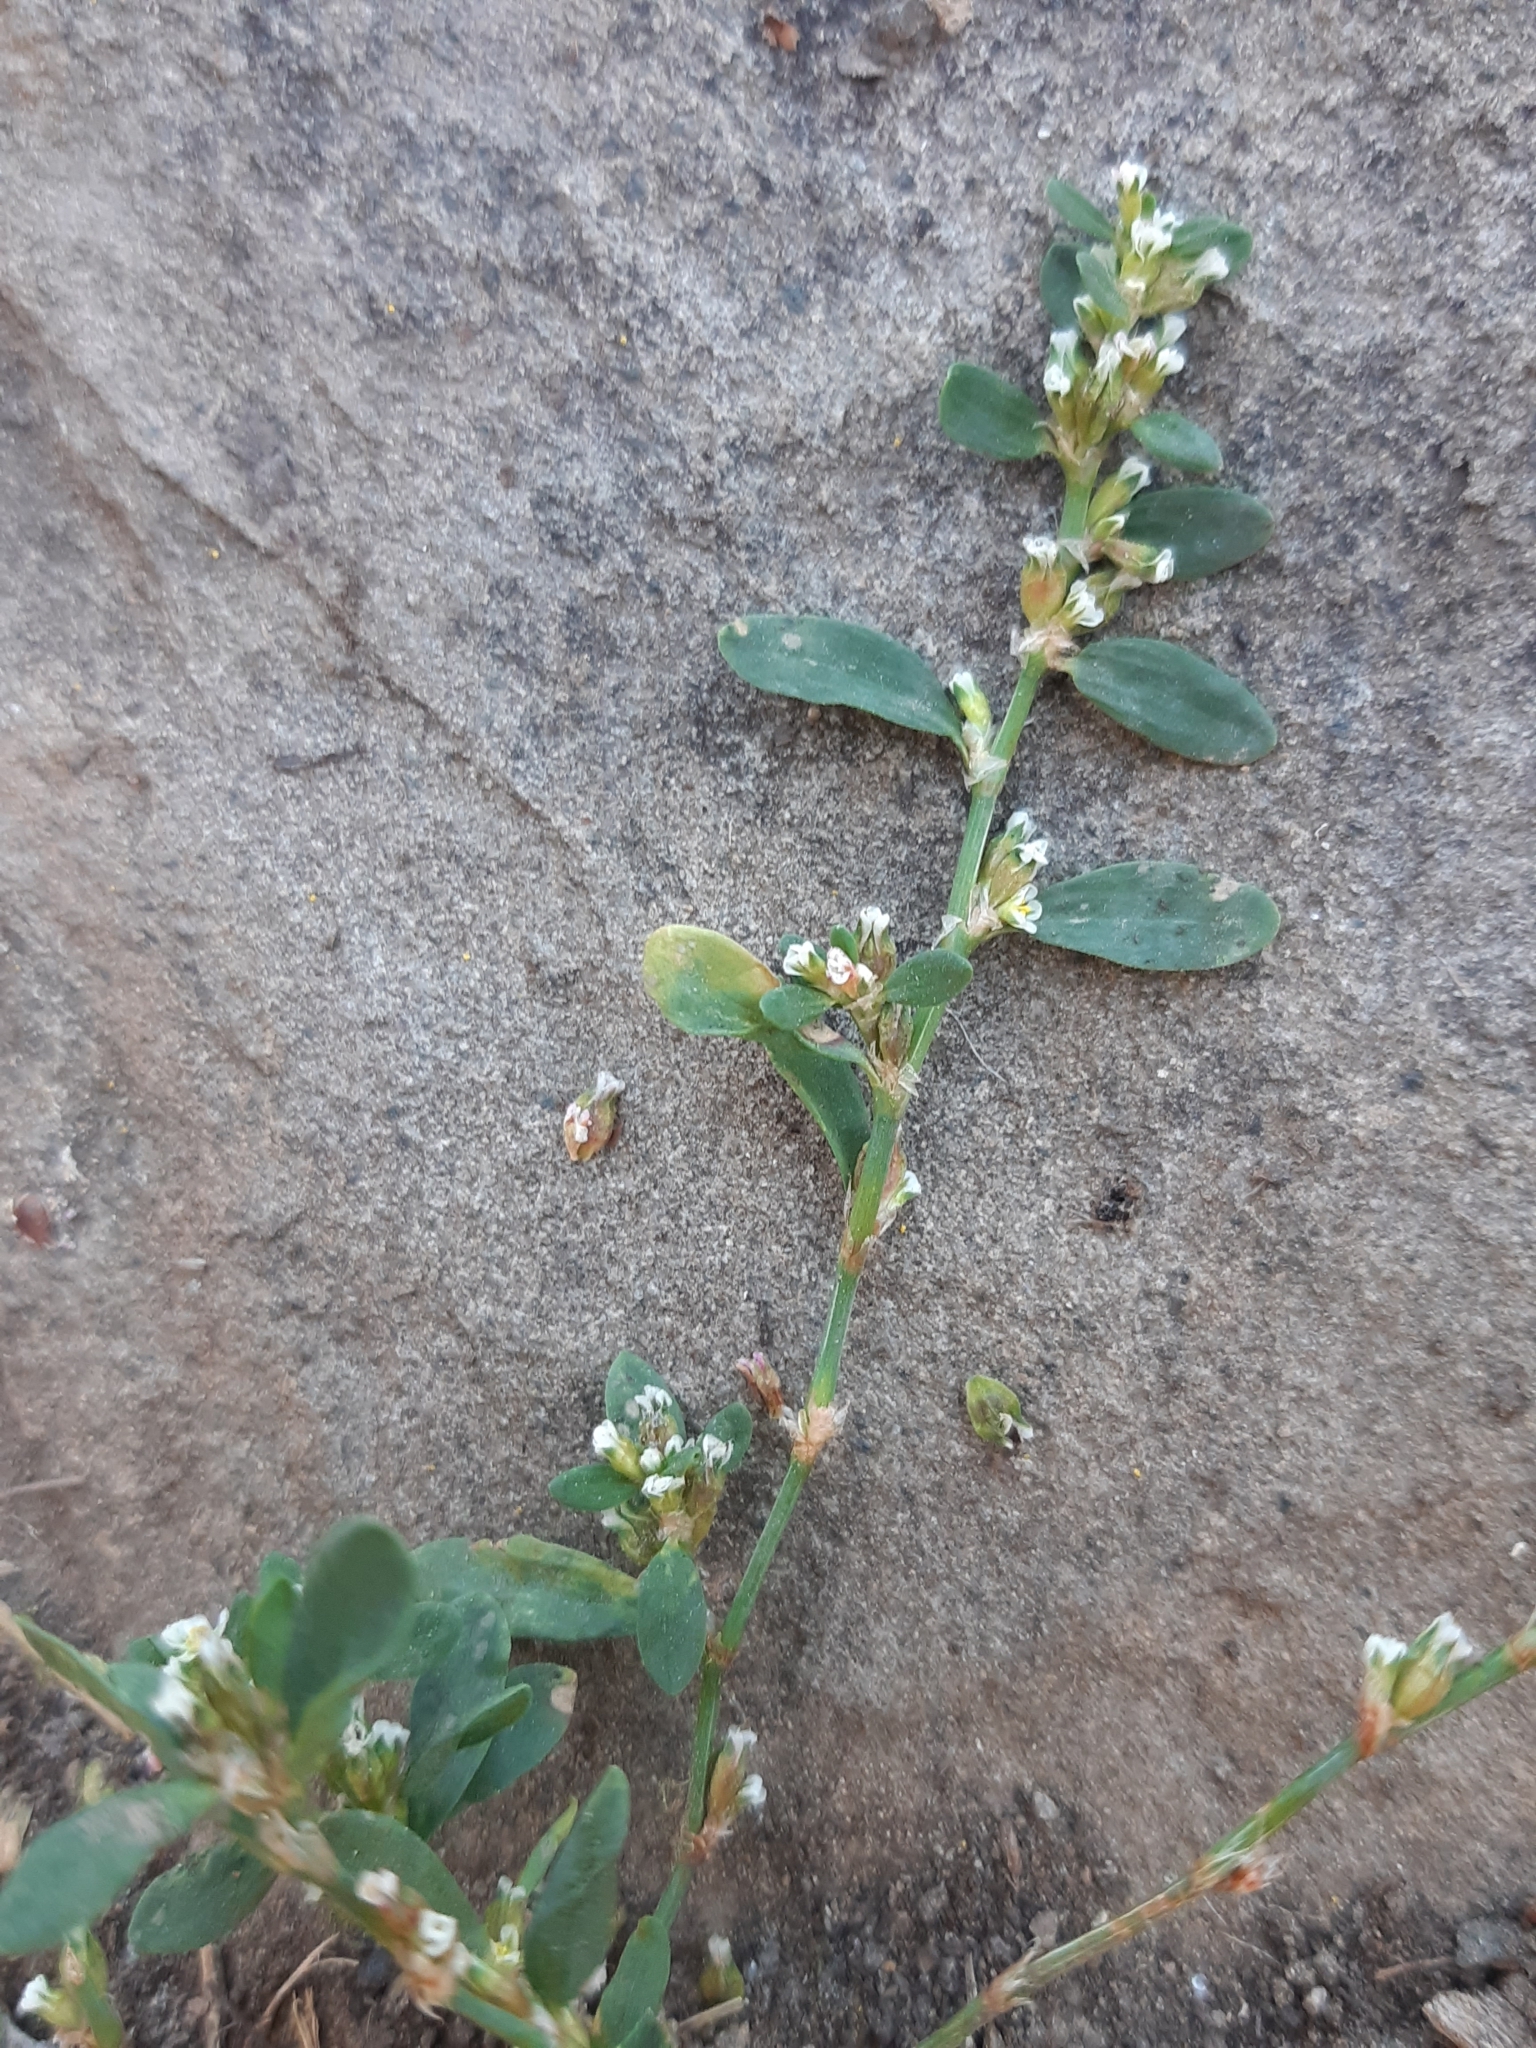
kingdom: Plantae
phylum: Tracheophyta
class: Magnoliopsida
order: Caryophyllales
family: Polygonaceae
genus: Polygonum
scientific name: Polygonum arenastrum
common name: Equal-leaved knotgrass
